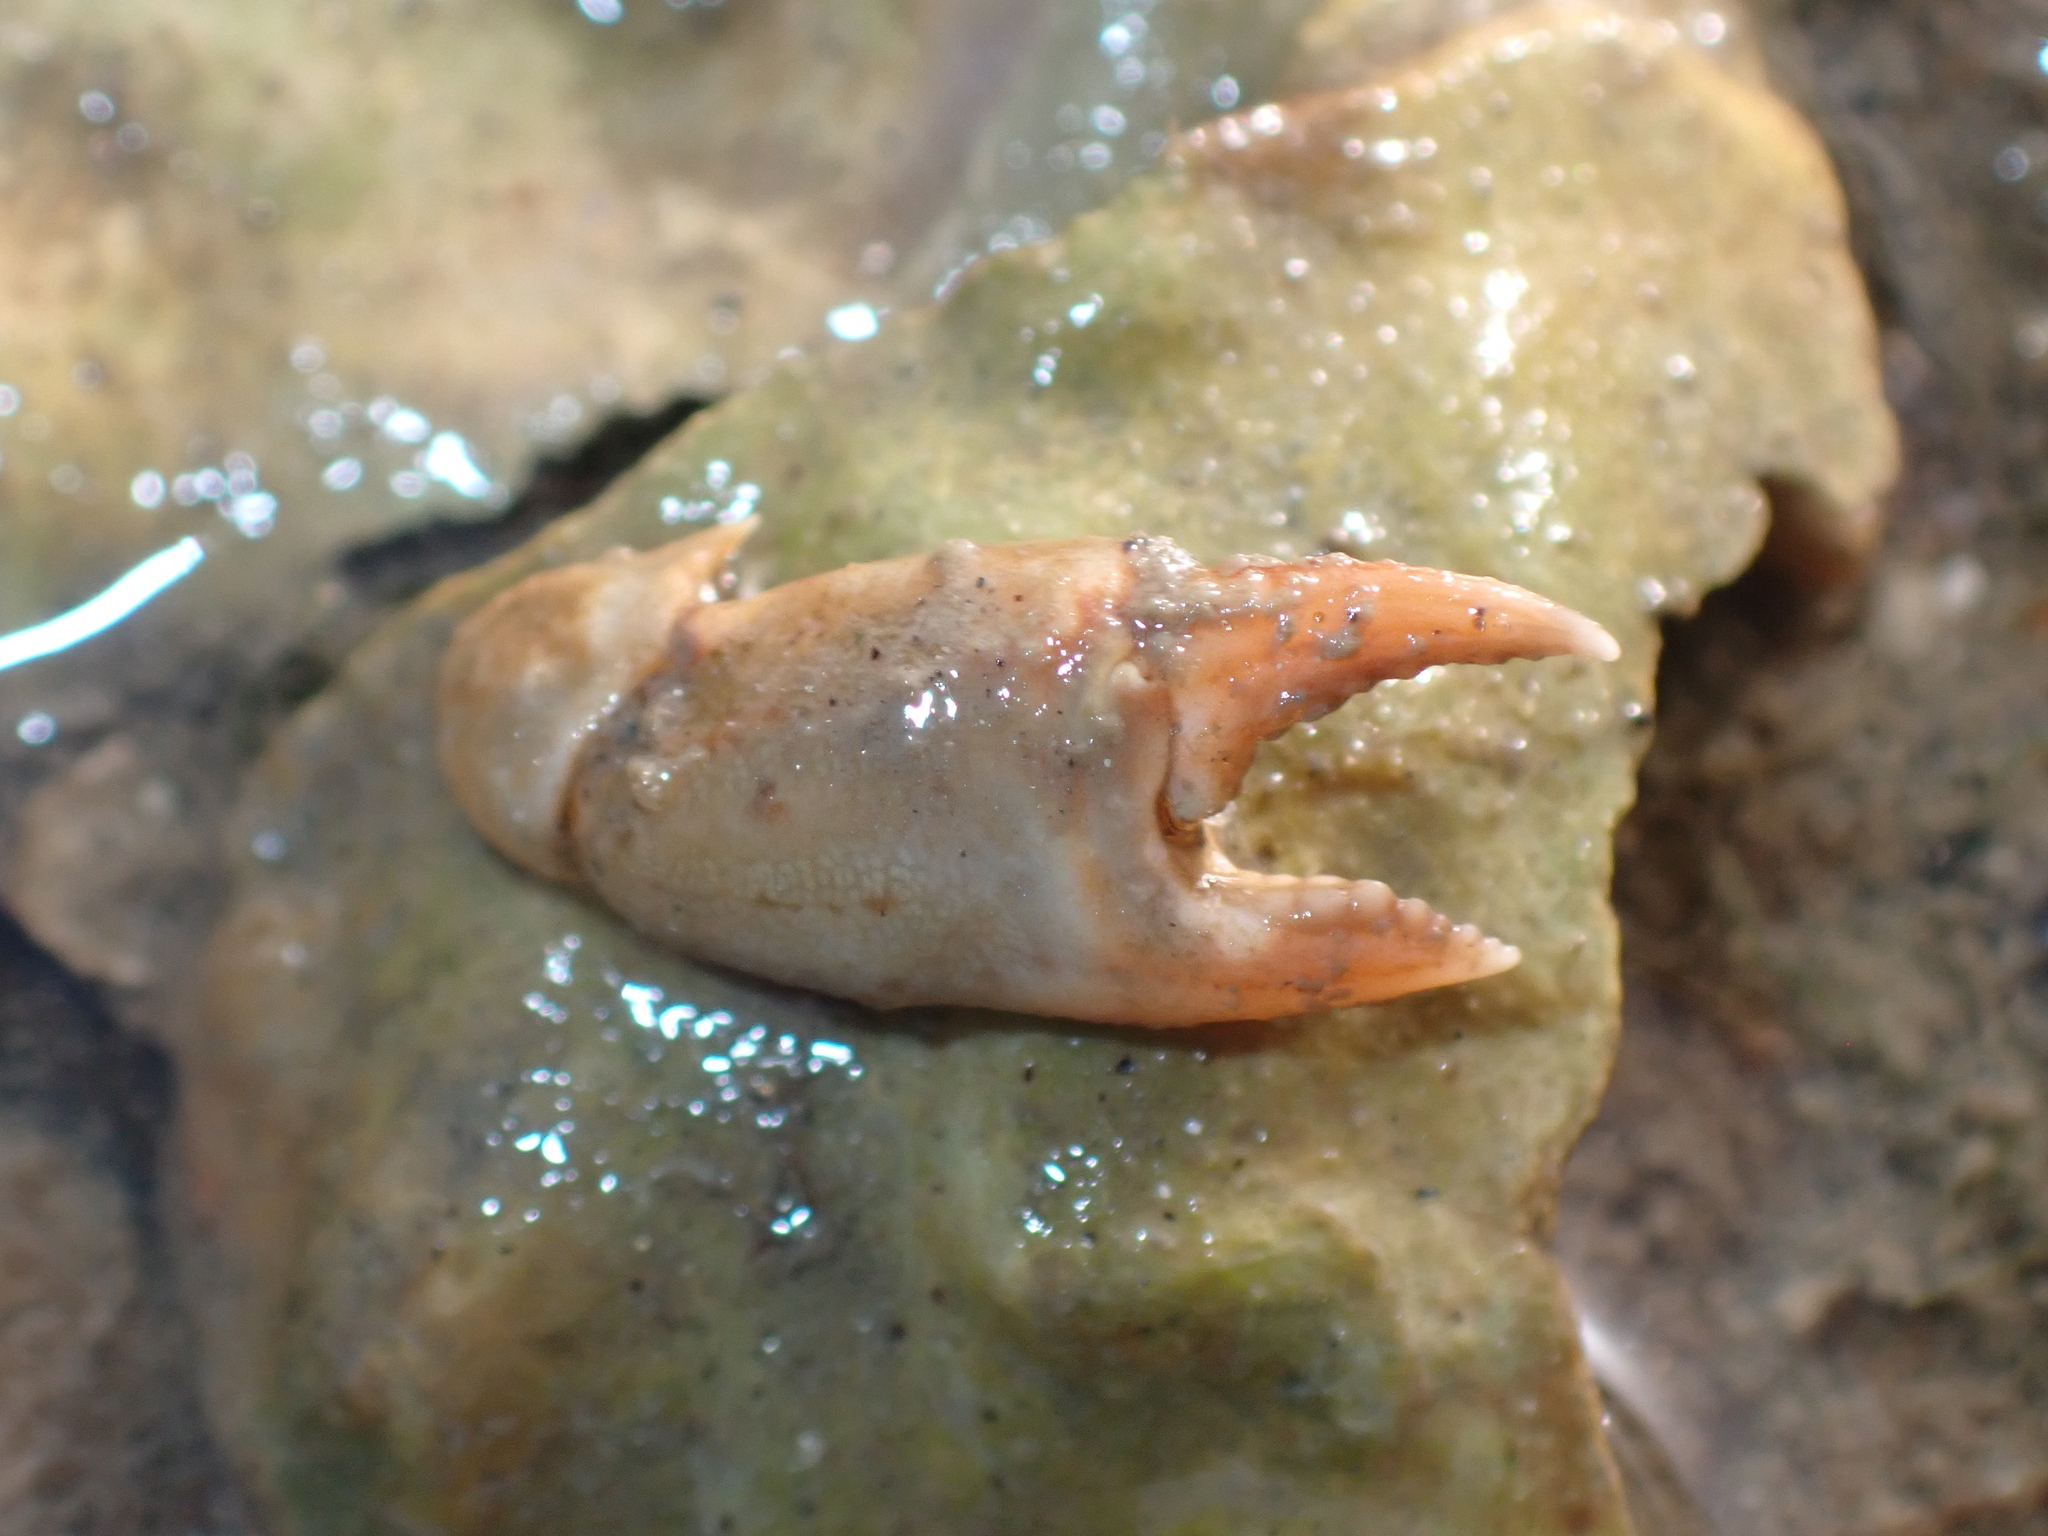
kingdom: Animalia
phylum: Arthropoda
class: Malacostraca
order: Decapoda
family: Carcinidae
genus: Carcinus
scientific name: Carcinus maenas
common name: European green crab
